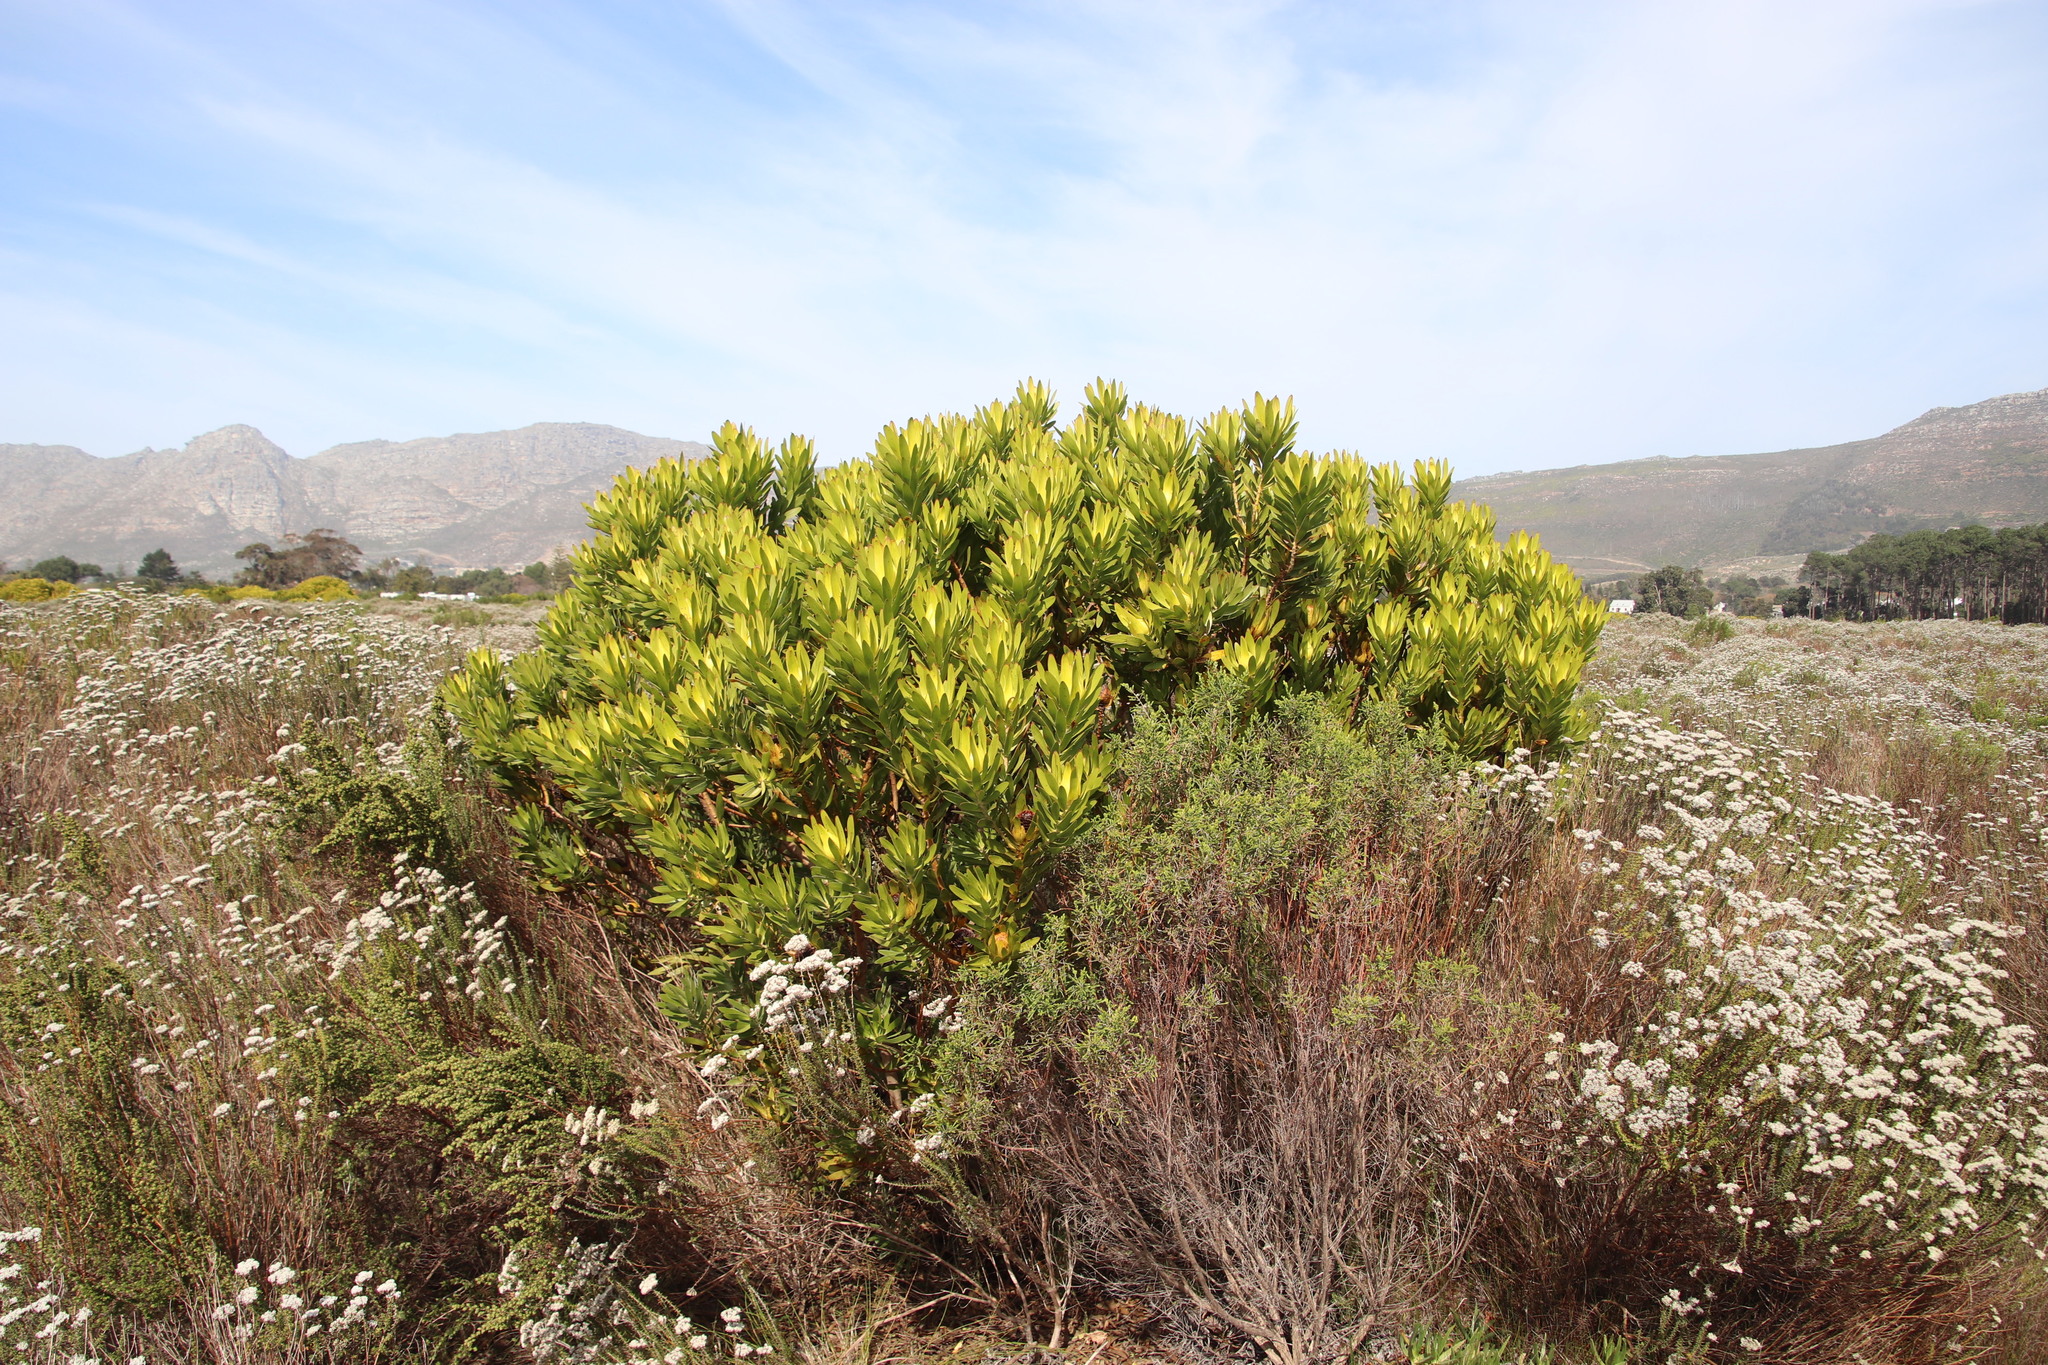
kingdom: Plantae
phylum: Tracheophyta
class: Magnoliopsida
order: Proteales
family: Proteaceae
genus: Leucadendron
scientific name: Leucadendron laureolum
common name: Golden sunshinebush
